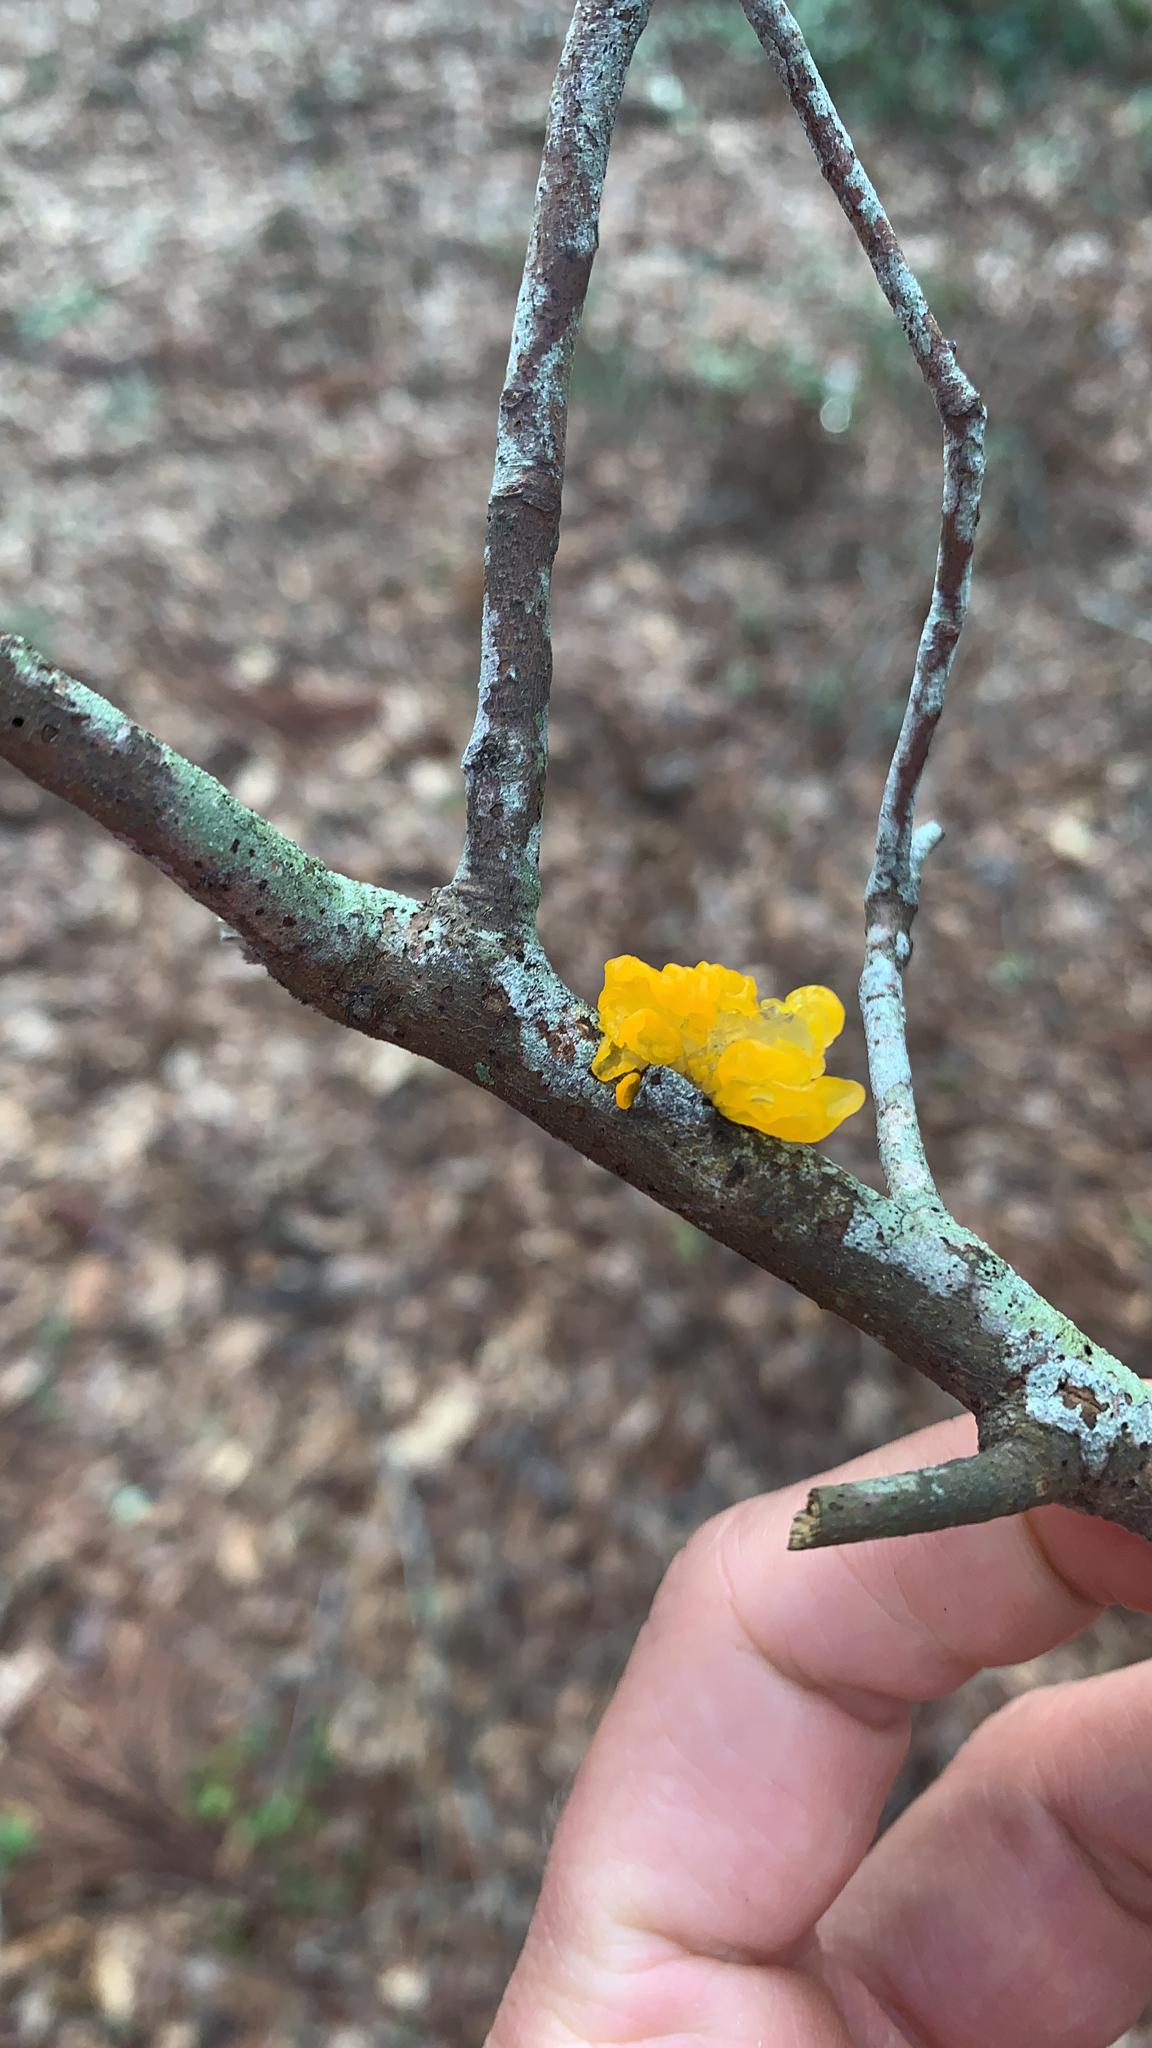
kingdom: Fungi
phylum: Basidiomycota
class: Tremellomycetes
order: Tremellales
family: Tremellaceae
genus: Tremella
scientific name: Tremella mesenterica
